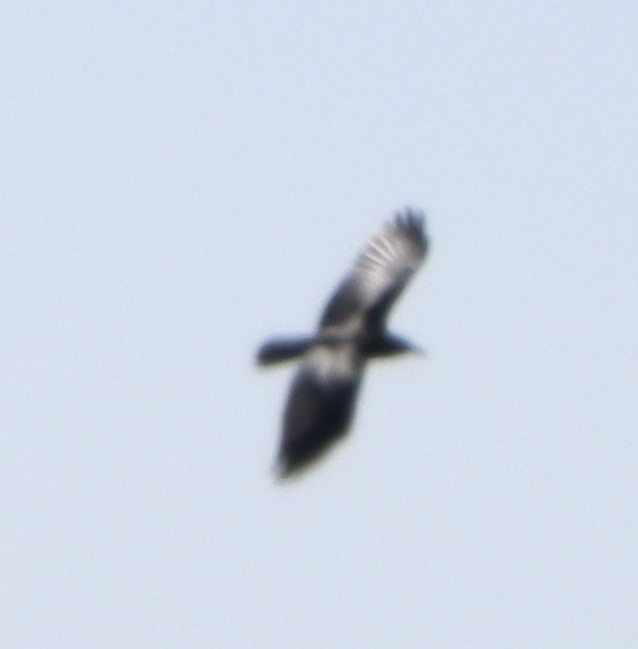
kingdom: Animalia
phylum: Chordata
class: Aves
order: Passeriformes
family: Corvidae
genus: Corvus
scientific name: Corvus brachyrhynchos
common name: American crow
